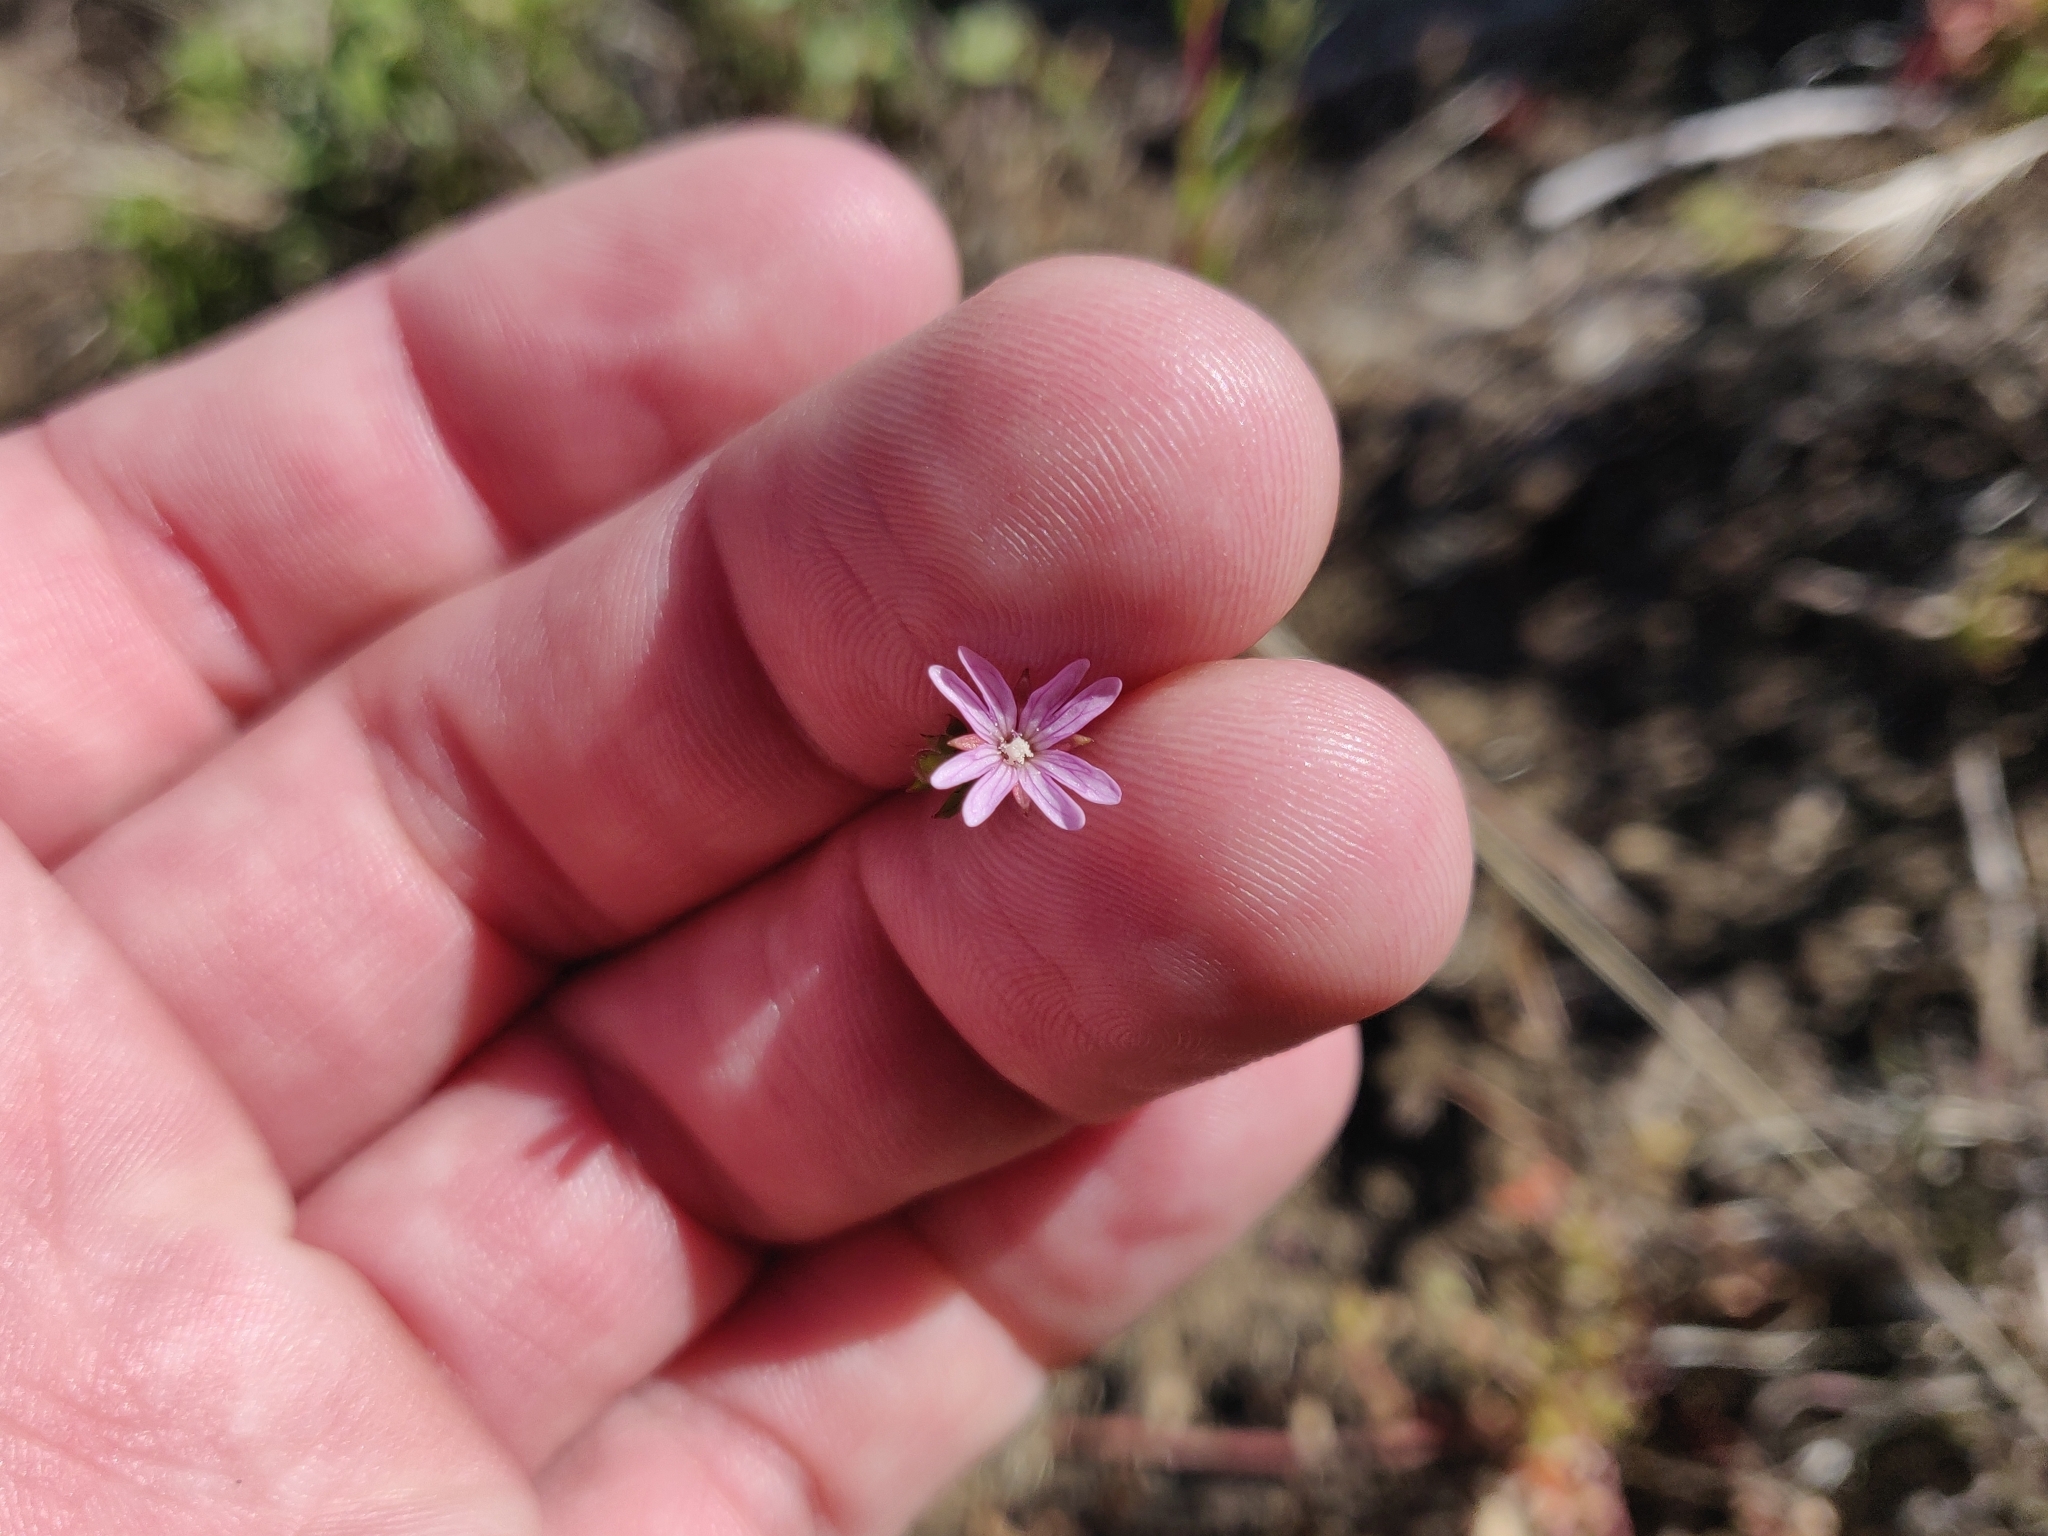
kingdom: Plantae
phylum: Tracheophyta
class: Magnoliopsida
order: Myrtales
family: Onagraceae
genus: Epilobium
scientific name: Epilobium brachycarpum
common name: Annual willowherb
